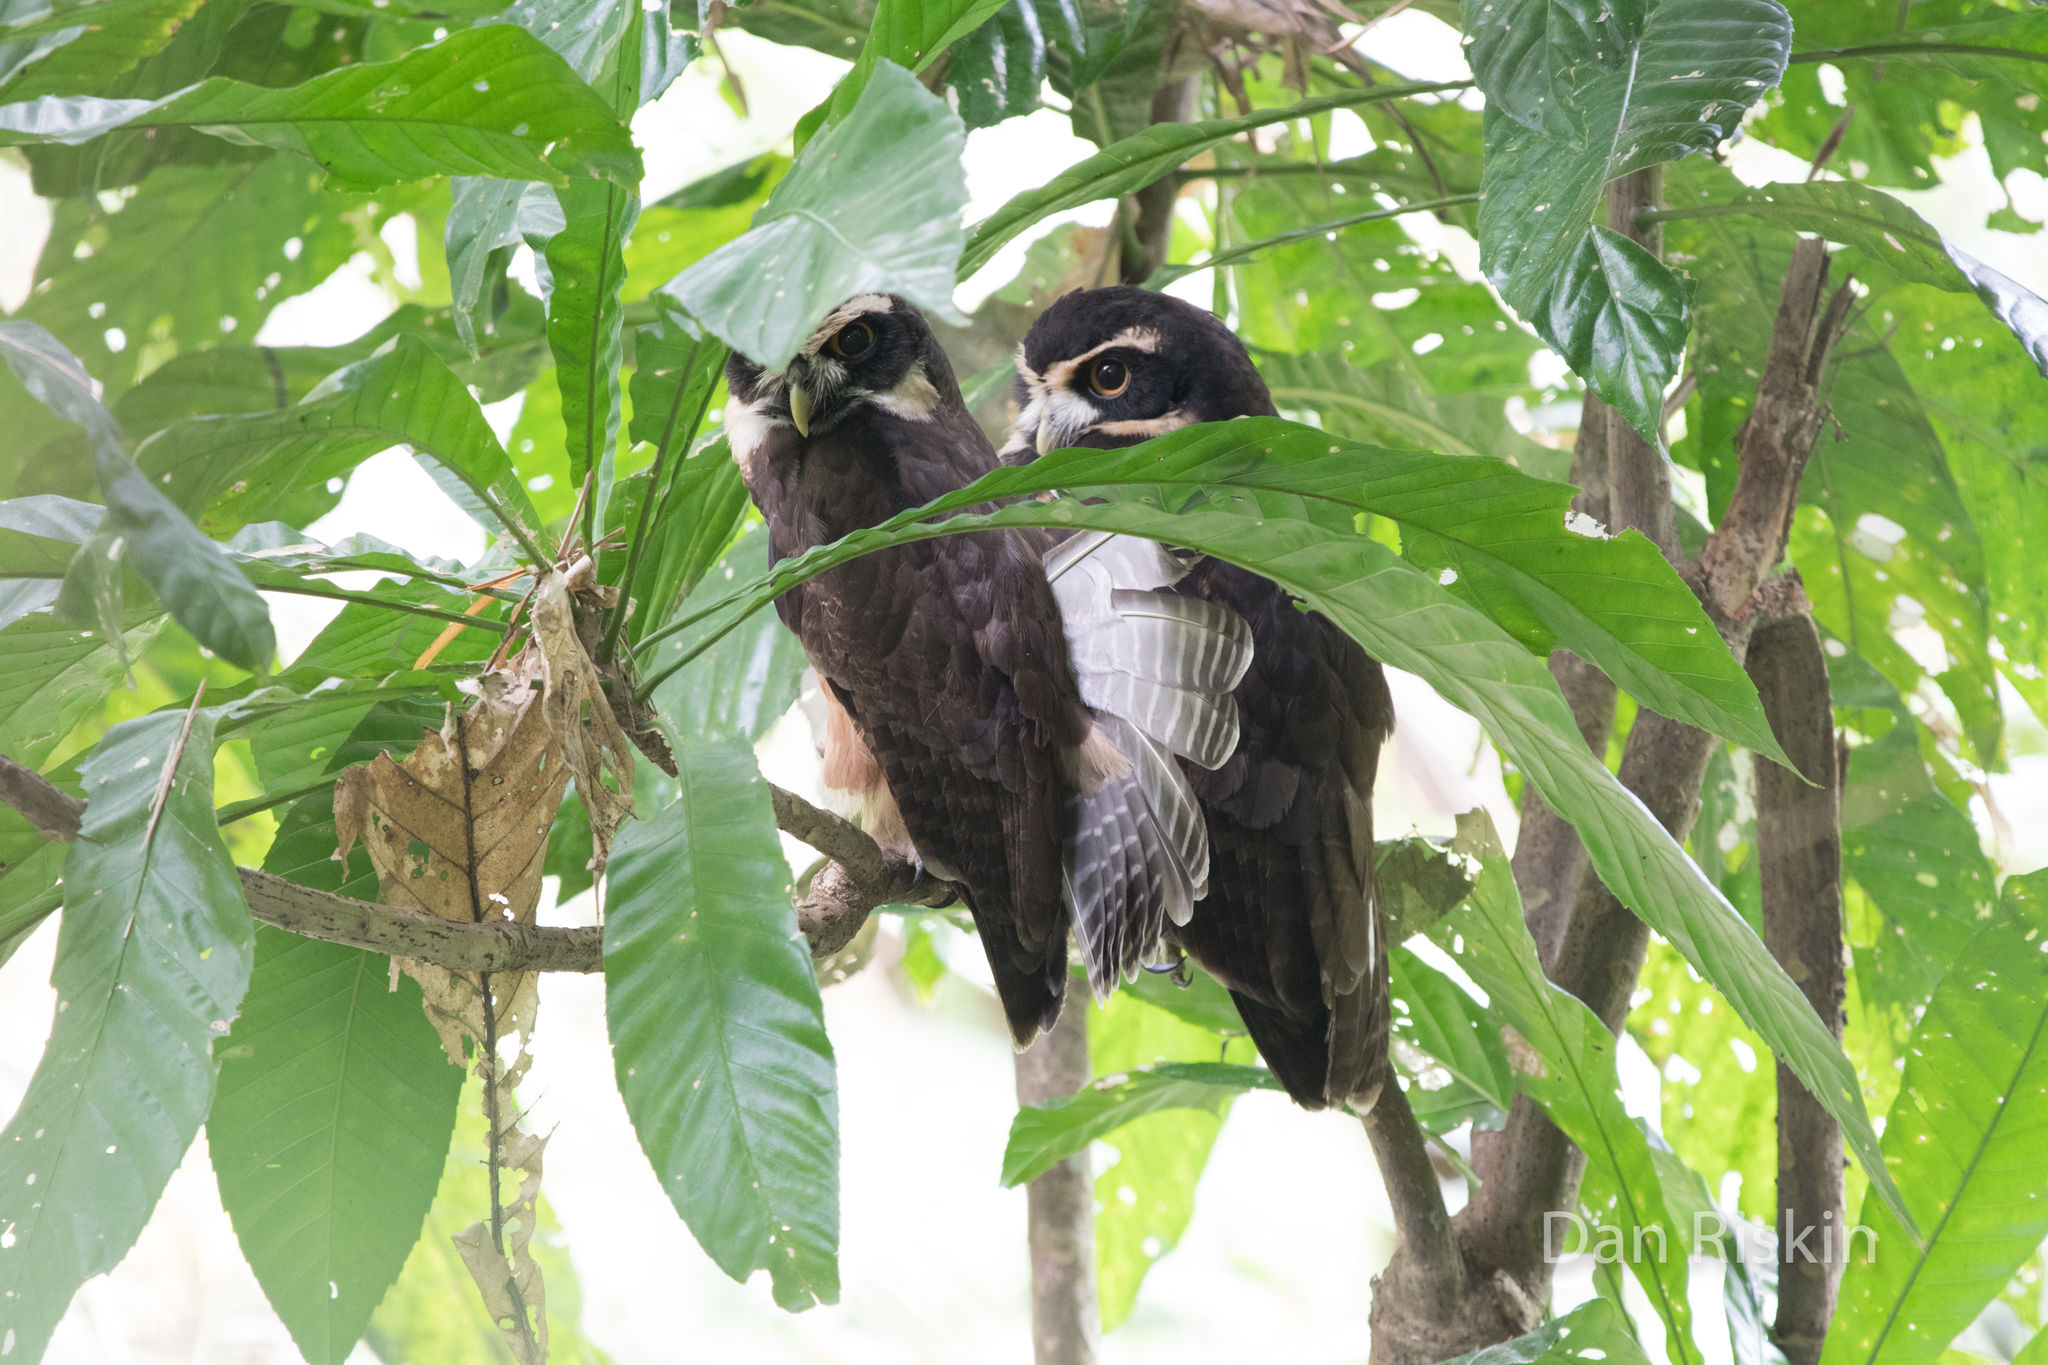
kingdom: Animalia
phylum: Chordata
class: Aves
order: Strigiformes
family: Strigidae
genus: Pulsatrix
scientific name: Pulsatrix perspicillata
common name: Spectacled owl
